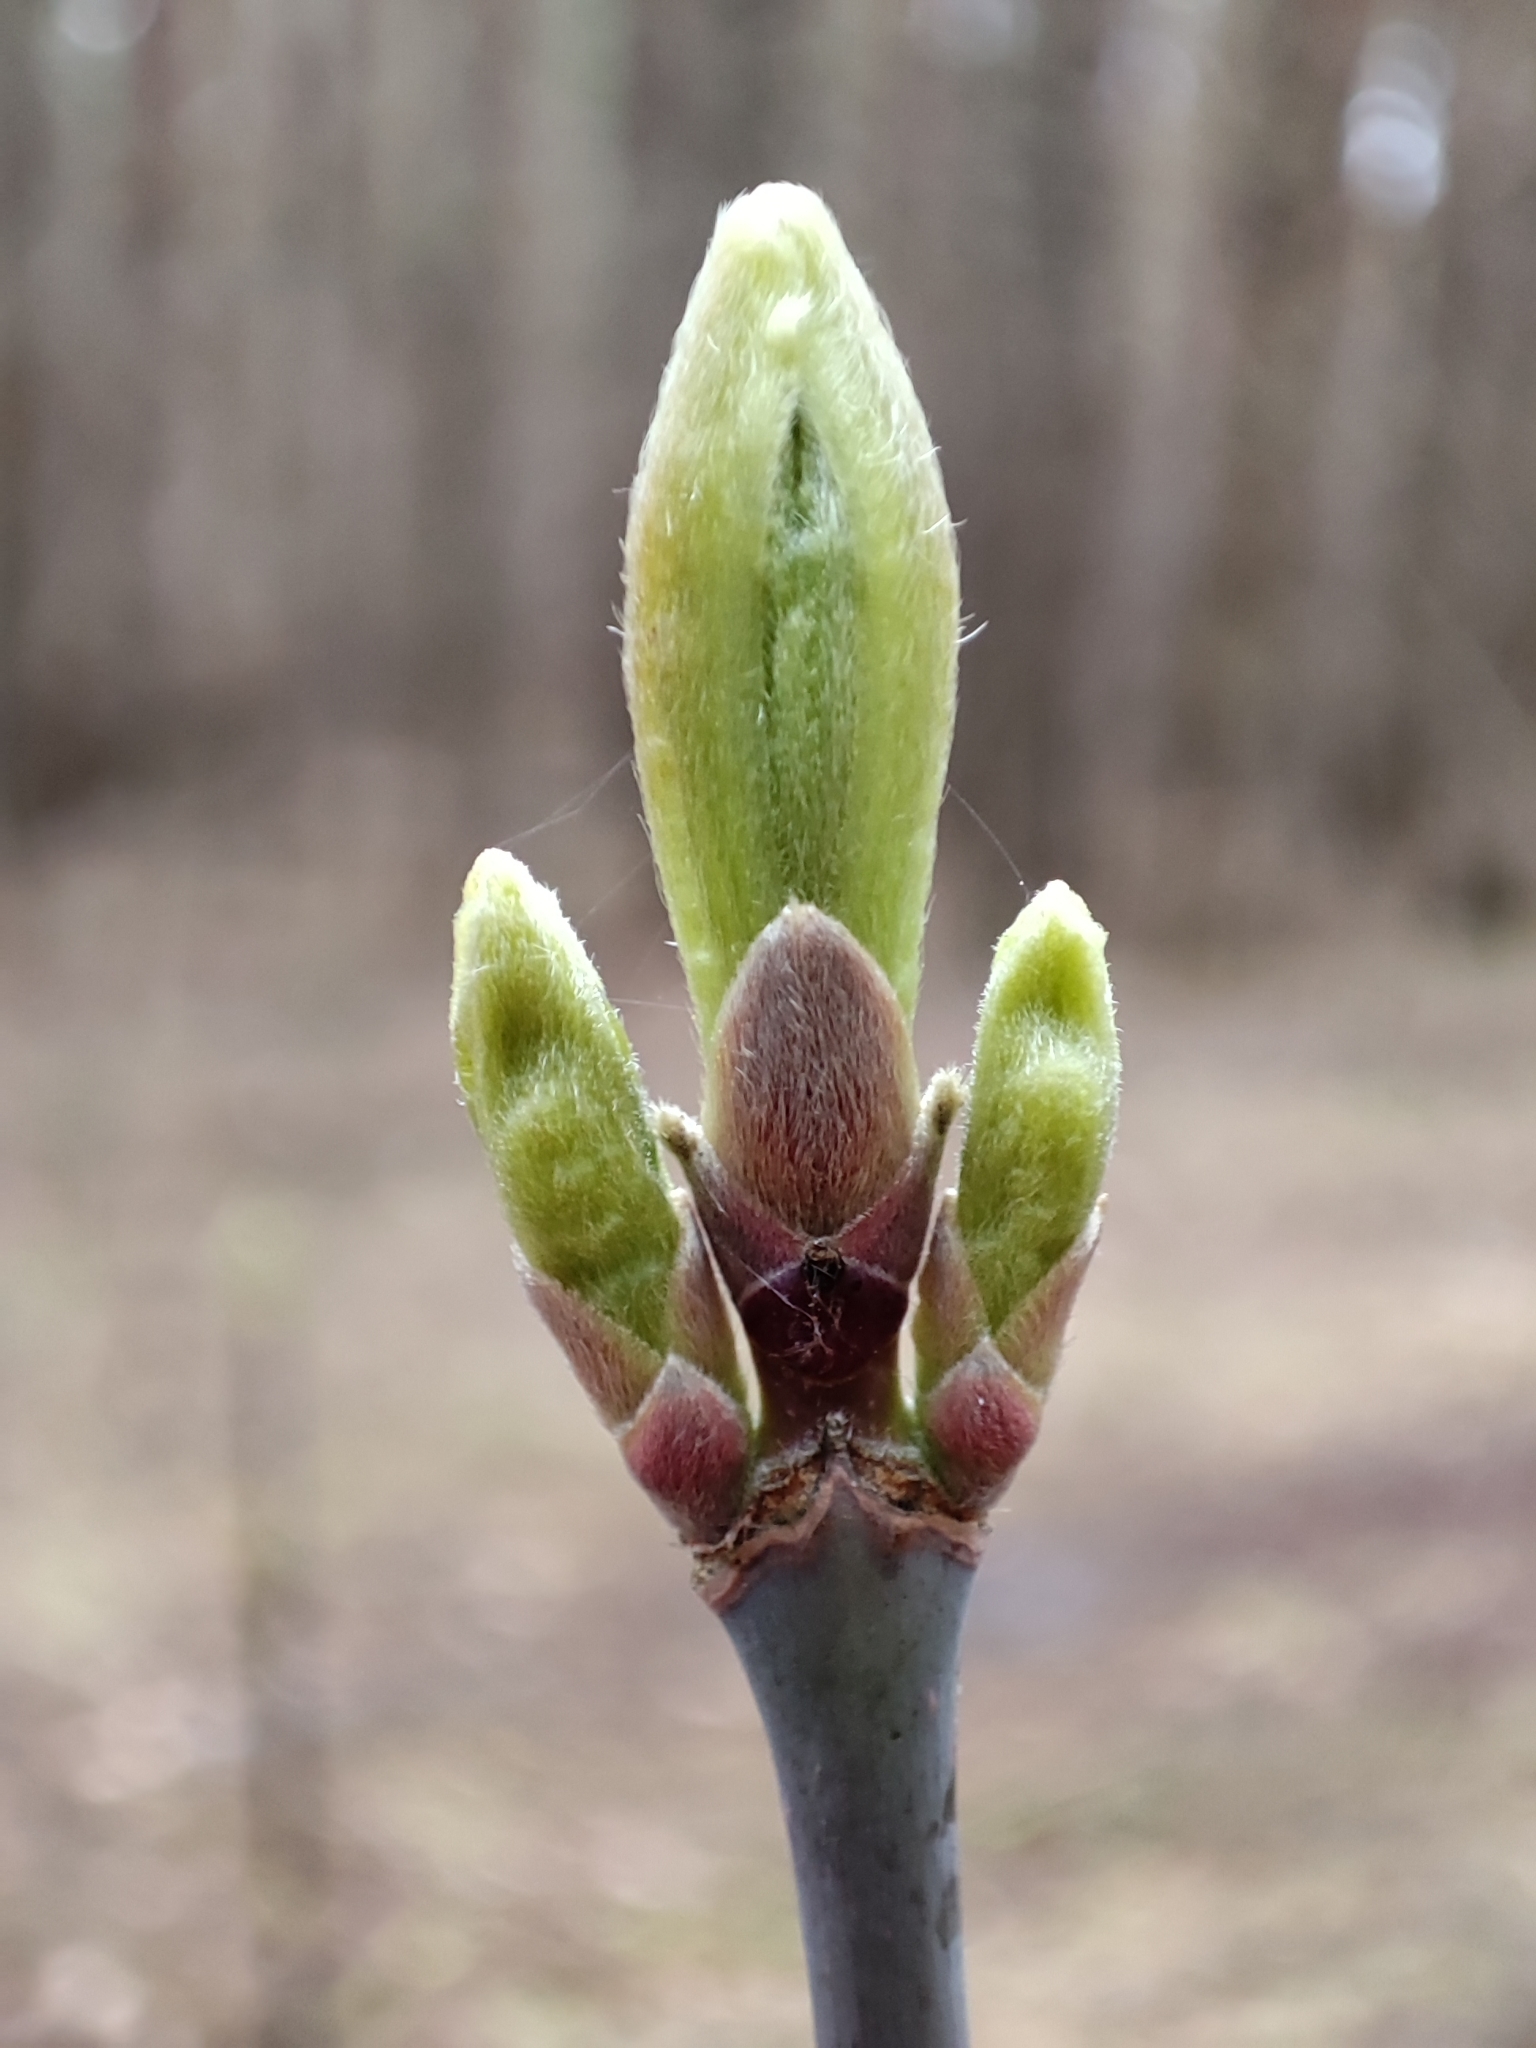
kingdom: Plantae
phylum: Tracheophyta
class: Magnoliopsida
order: Sapindales
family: Sapindaceae
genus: Acer
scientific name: Acer negundo
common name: Ashleaf maple
